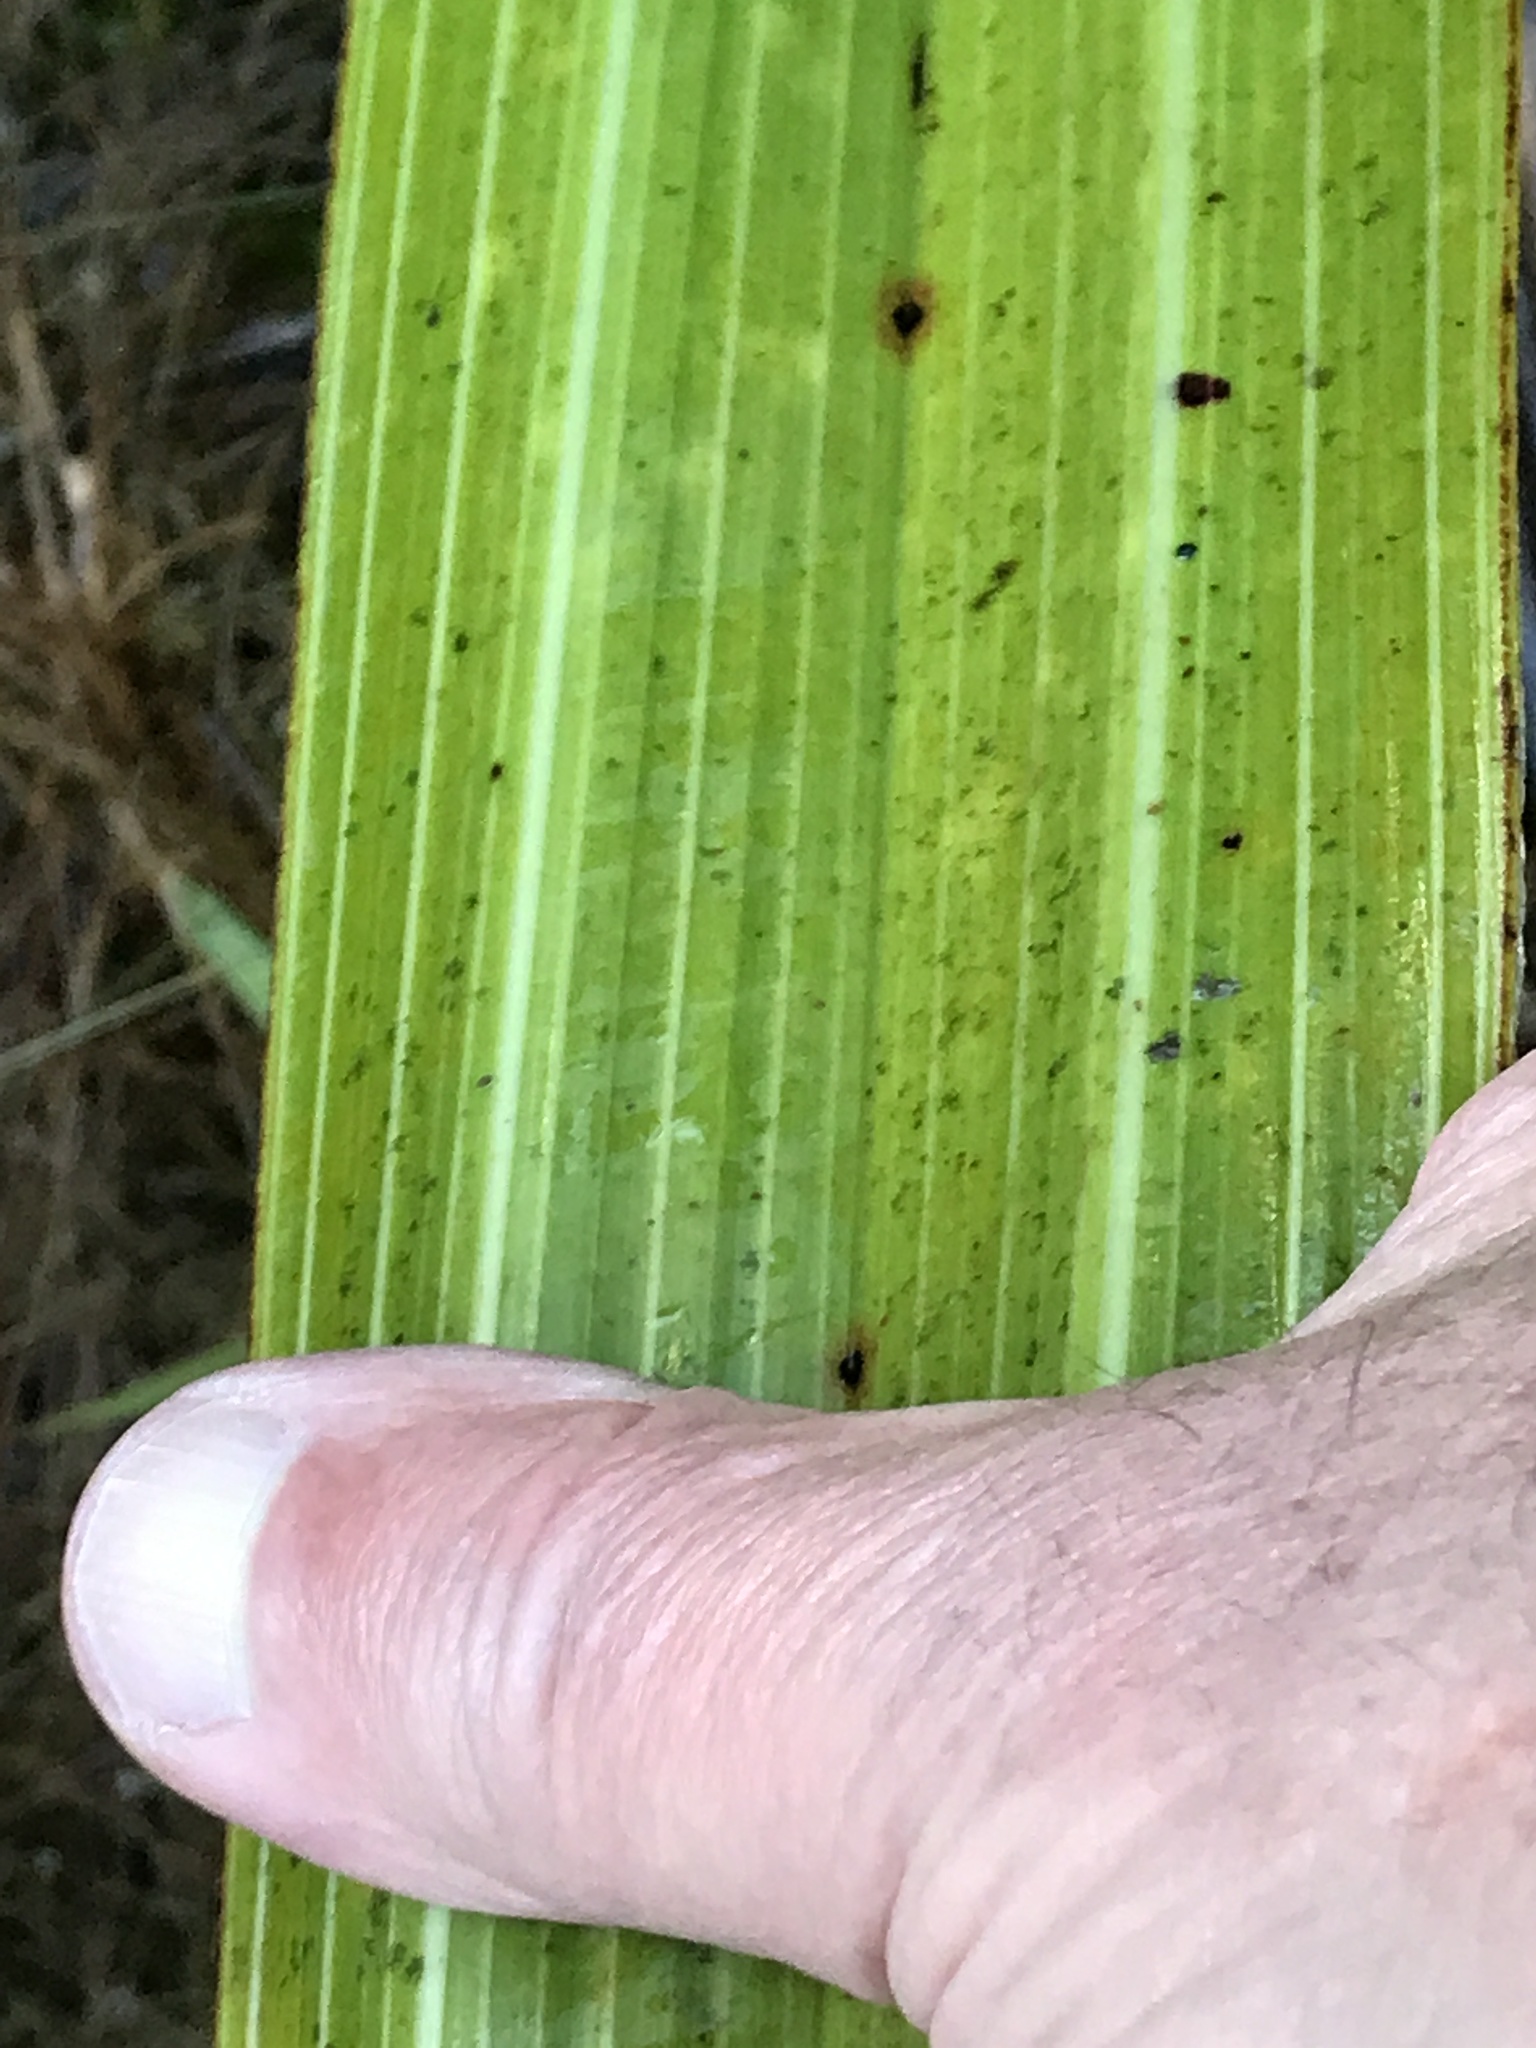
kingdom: Plantae
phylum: Tracheophyta
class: Liliopsida
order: Asparagales
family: Asteliaceae
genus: Astelia
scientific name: Astelia grandis
